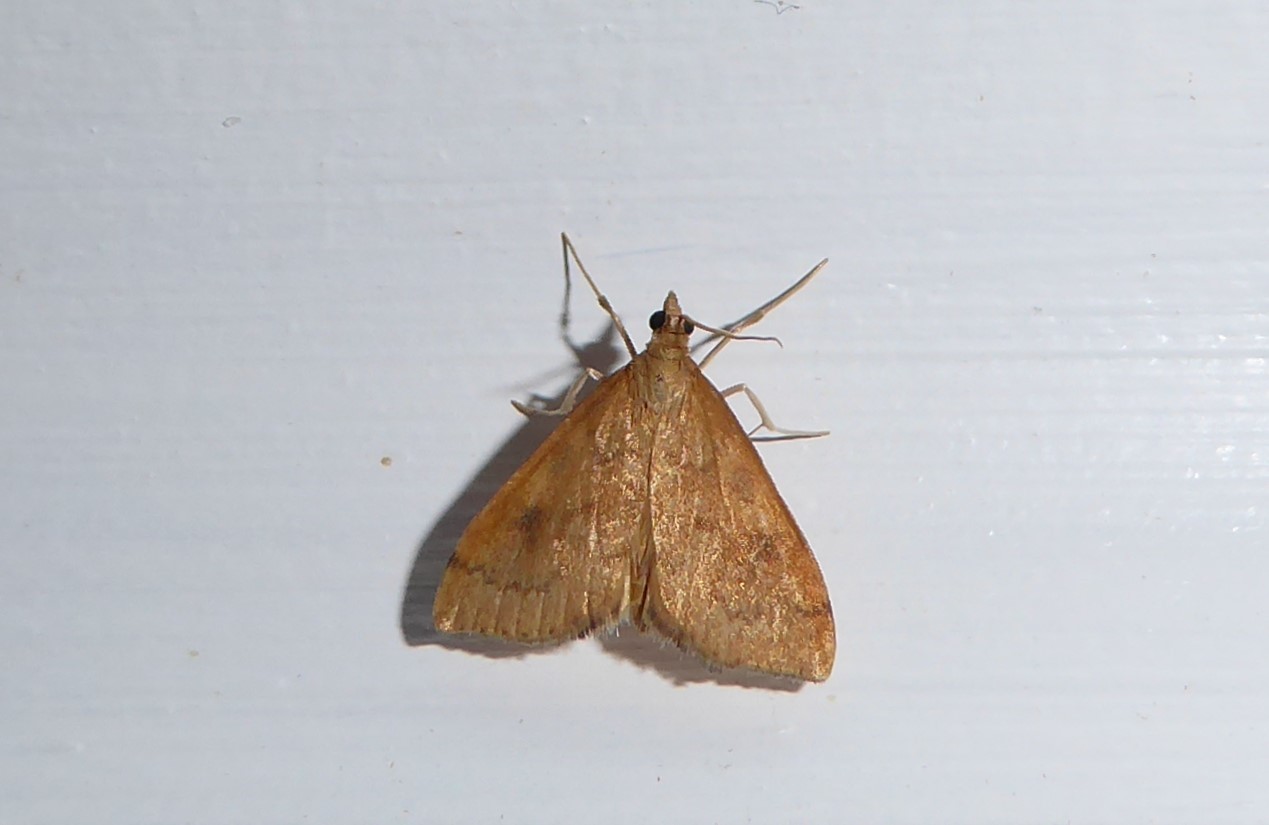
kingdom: Animalia
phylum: Arthropoda
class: Insecta
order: Lepidoptera
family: Crambidae
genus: Udea
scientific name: Udea Mnesictena flavidalis
